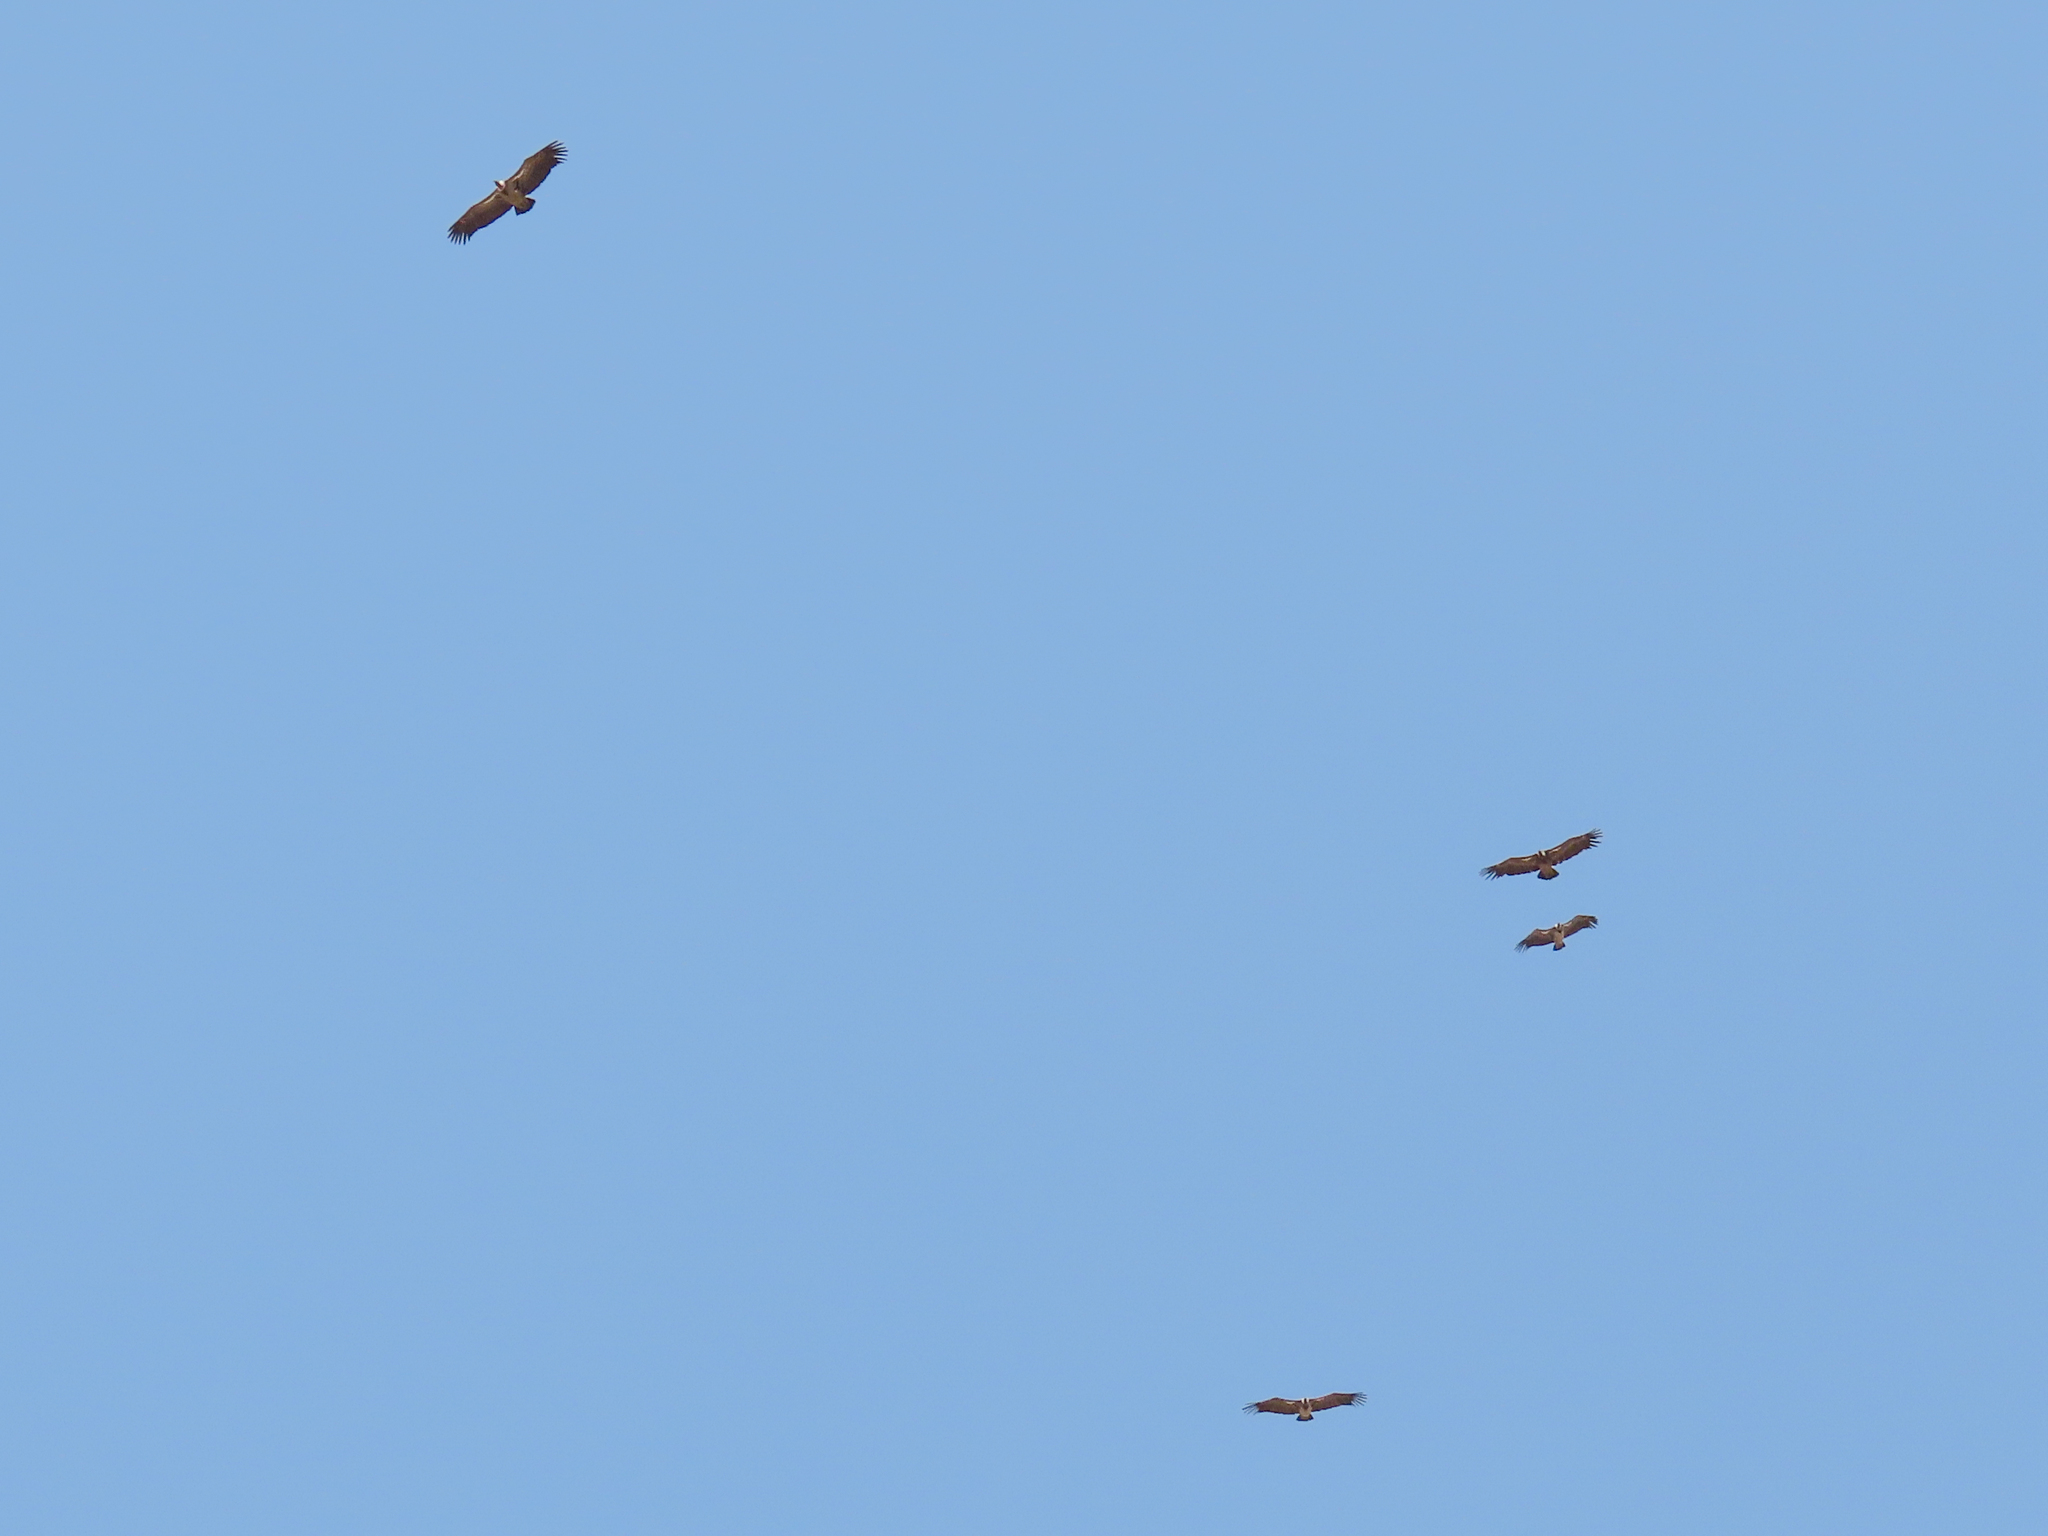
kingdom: Animalia
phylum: Chordata
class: Aves
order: Accipitriformes
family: Accipitridae
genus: Gyps
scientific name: Gyps rueppellii
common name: Rüppell's vulture
